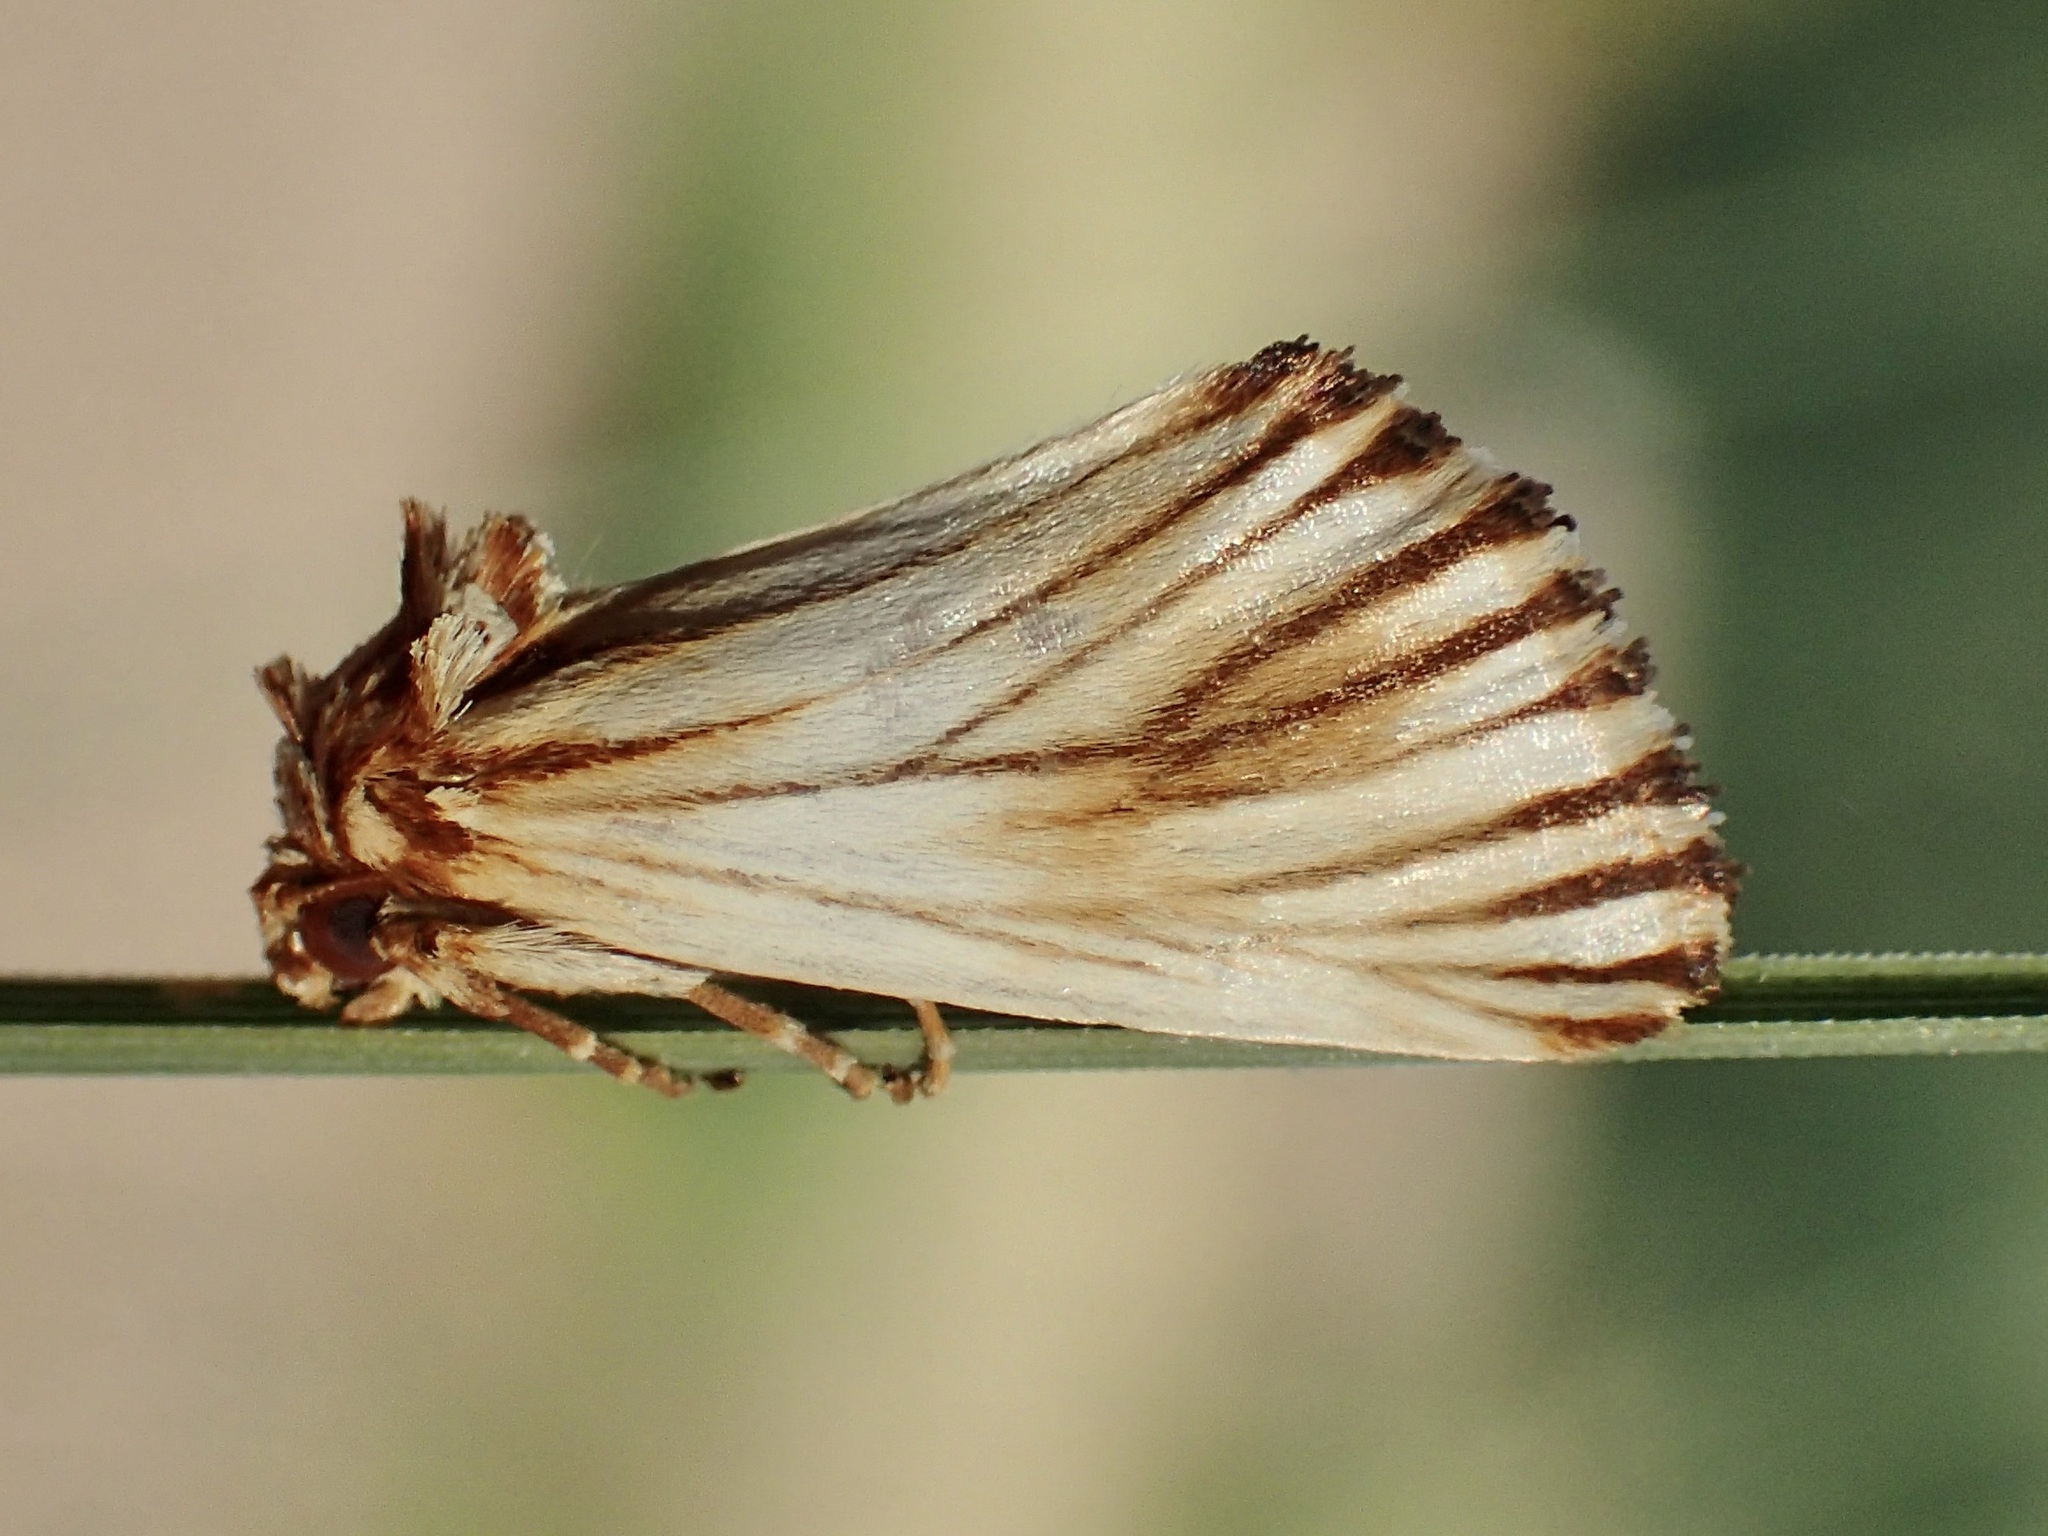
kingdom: Animalia
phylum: Arthropoda
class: Insecta
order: Lepidoptera
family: Noctuidae
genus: Antaplaga
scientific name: Antaplaga discistriga
